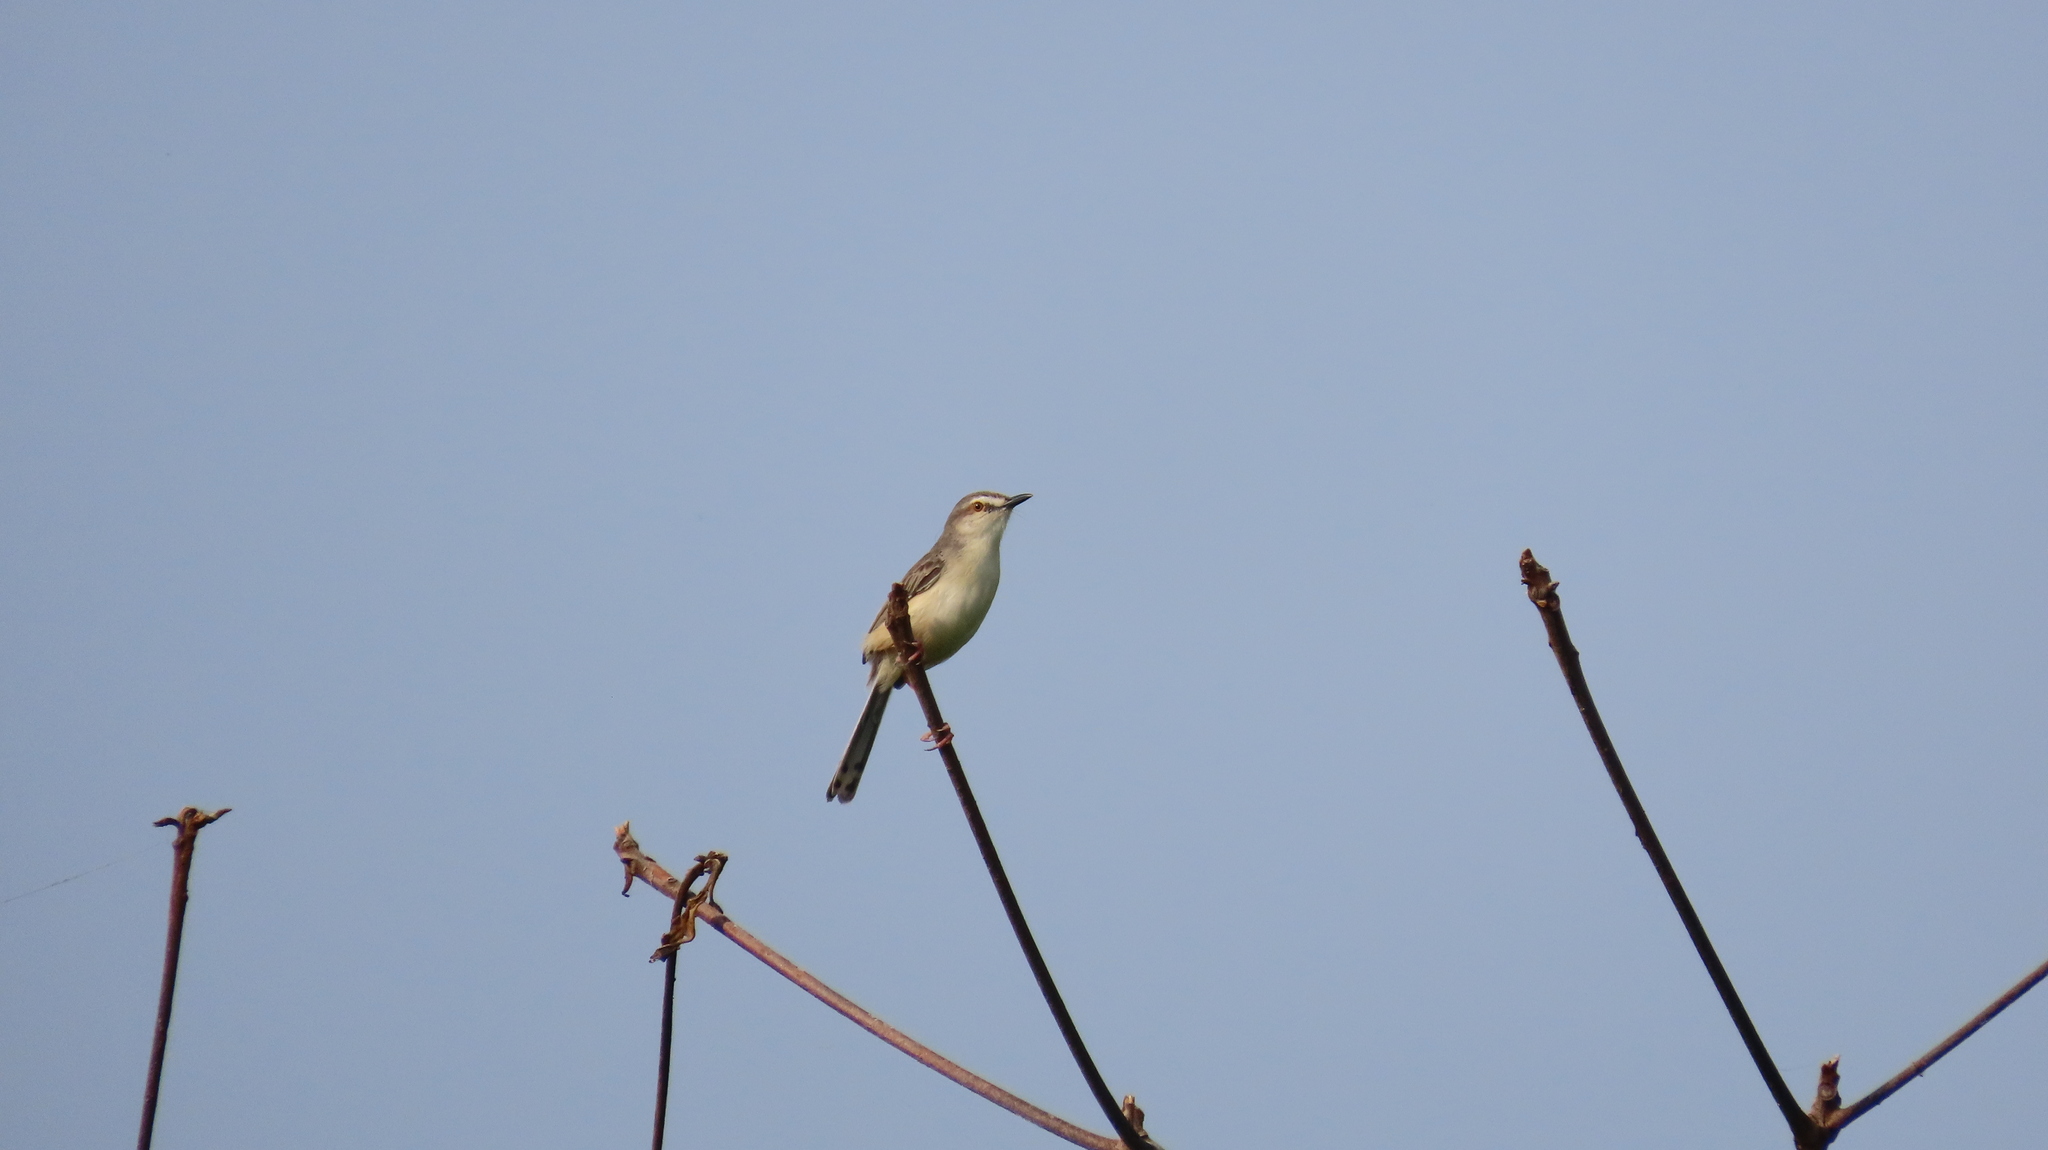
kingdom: Animalia
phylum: Chordata
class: Aves
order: Passeriformes
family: Cisticolidae
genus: Prinia
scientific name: Prinia inornata
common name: Plain prinia
